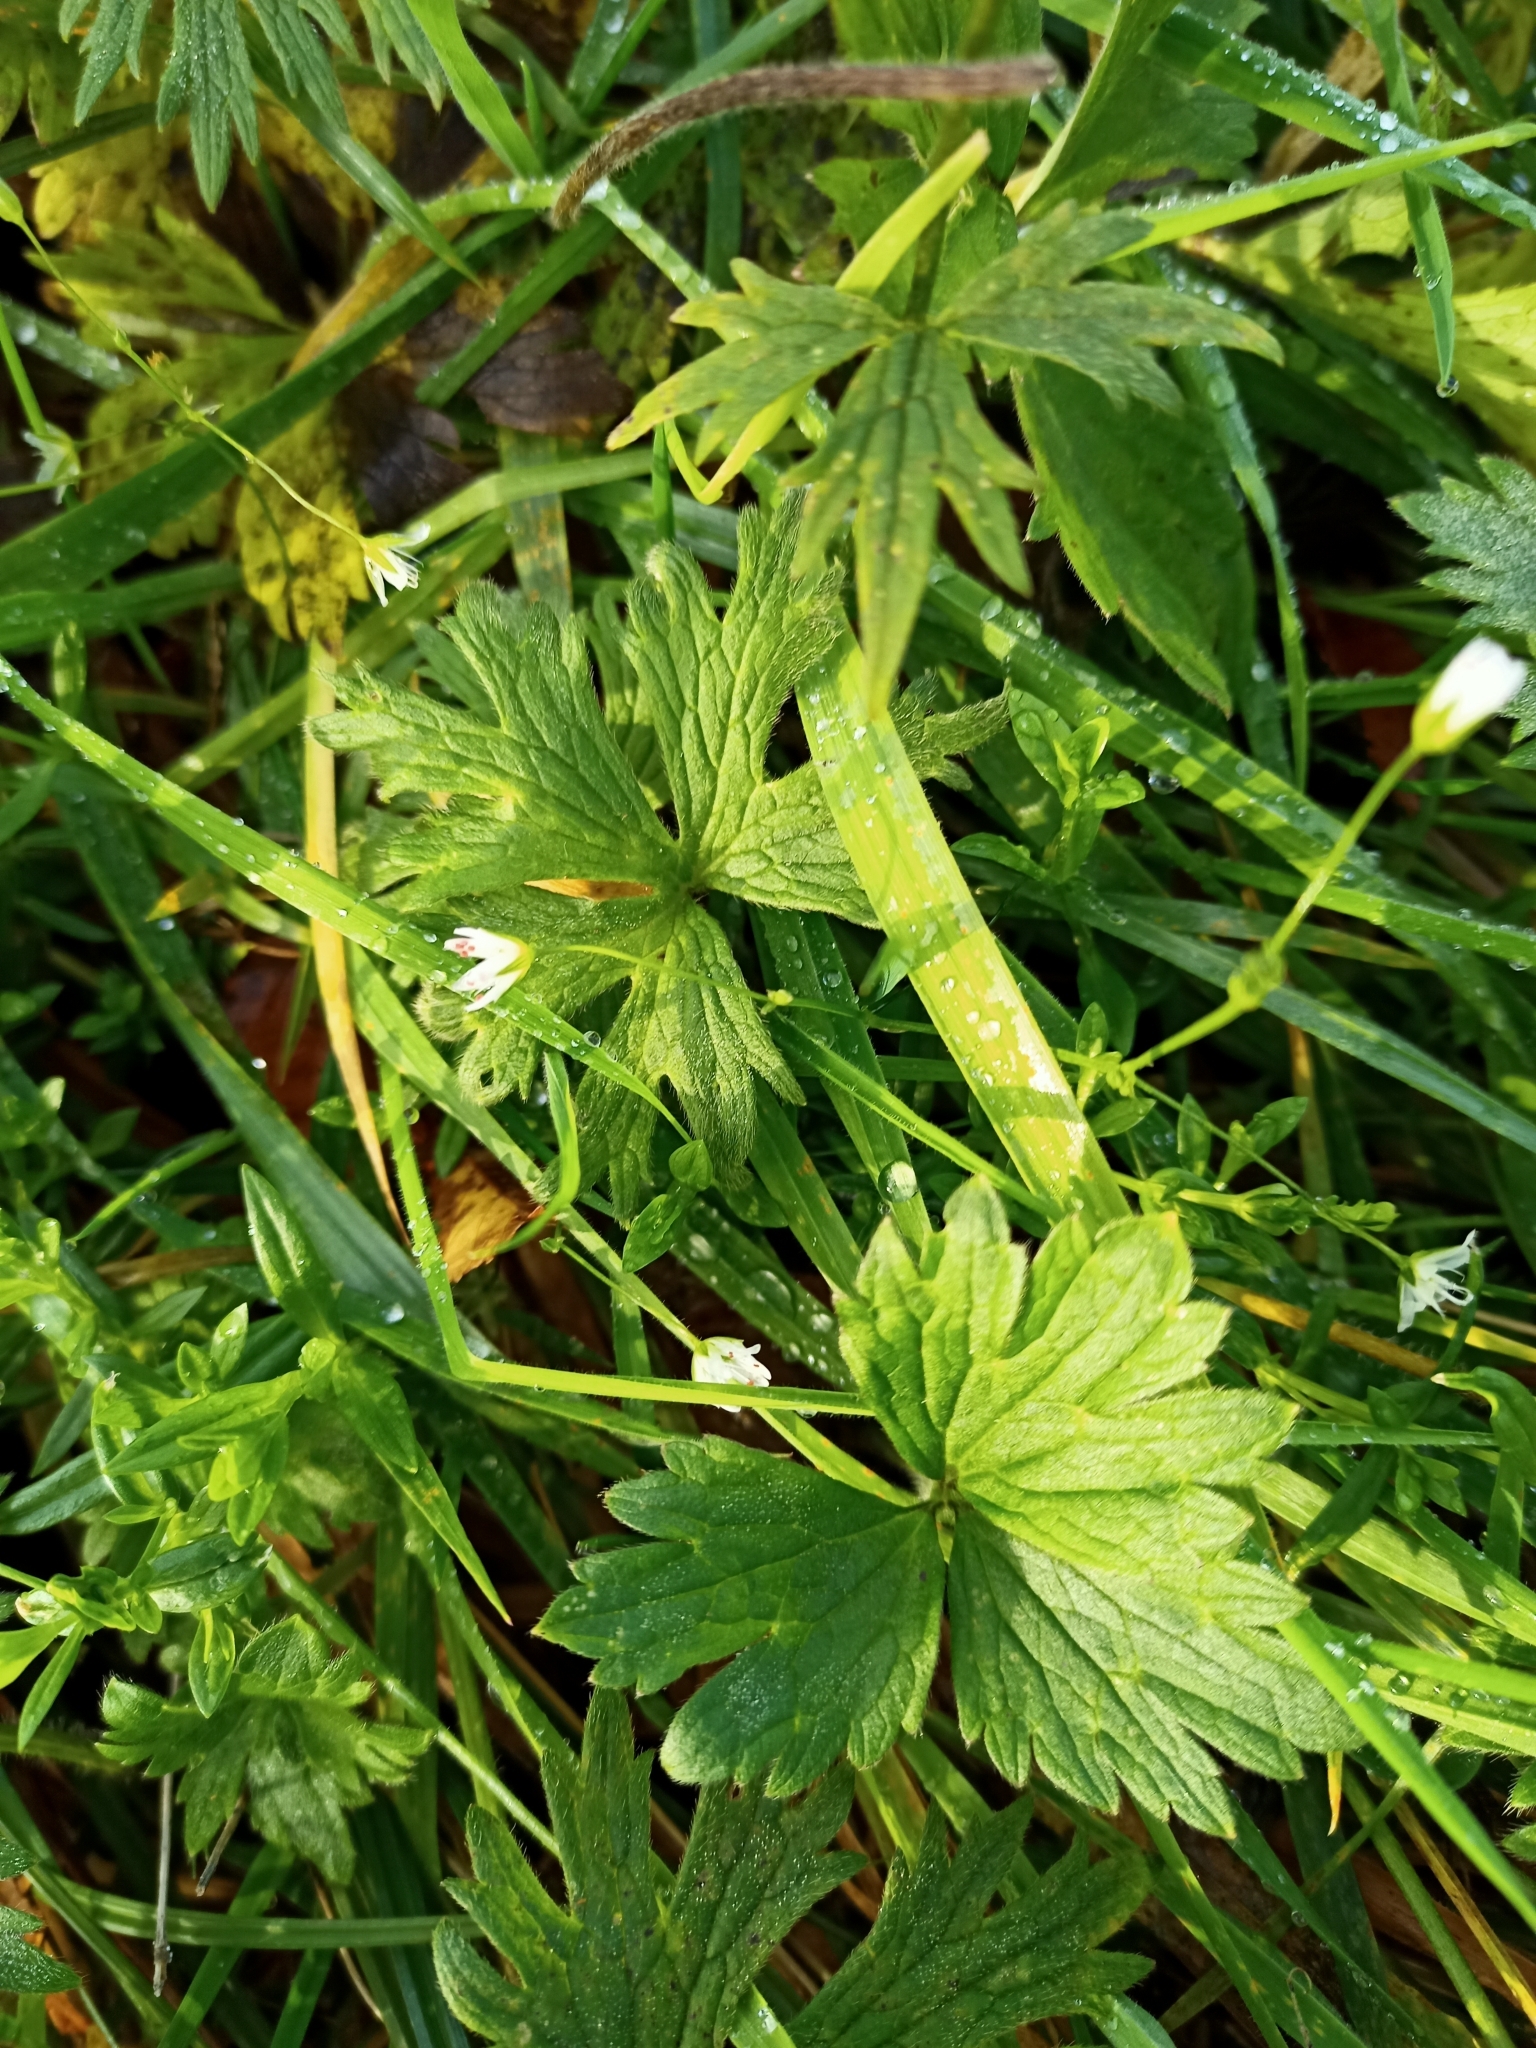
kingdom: Plantae
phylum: Tracheophyta
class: Magnoliopsida
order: Ranunculales
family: Ranunculaceae
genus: Ranunculus
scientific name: Ranunculus repens
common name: Creeping buttercup
